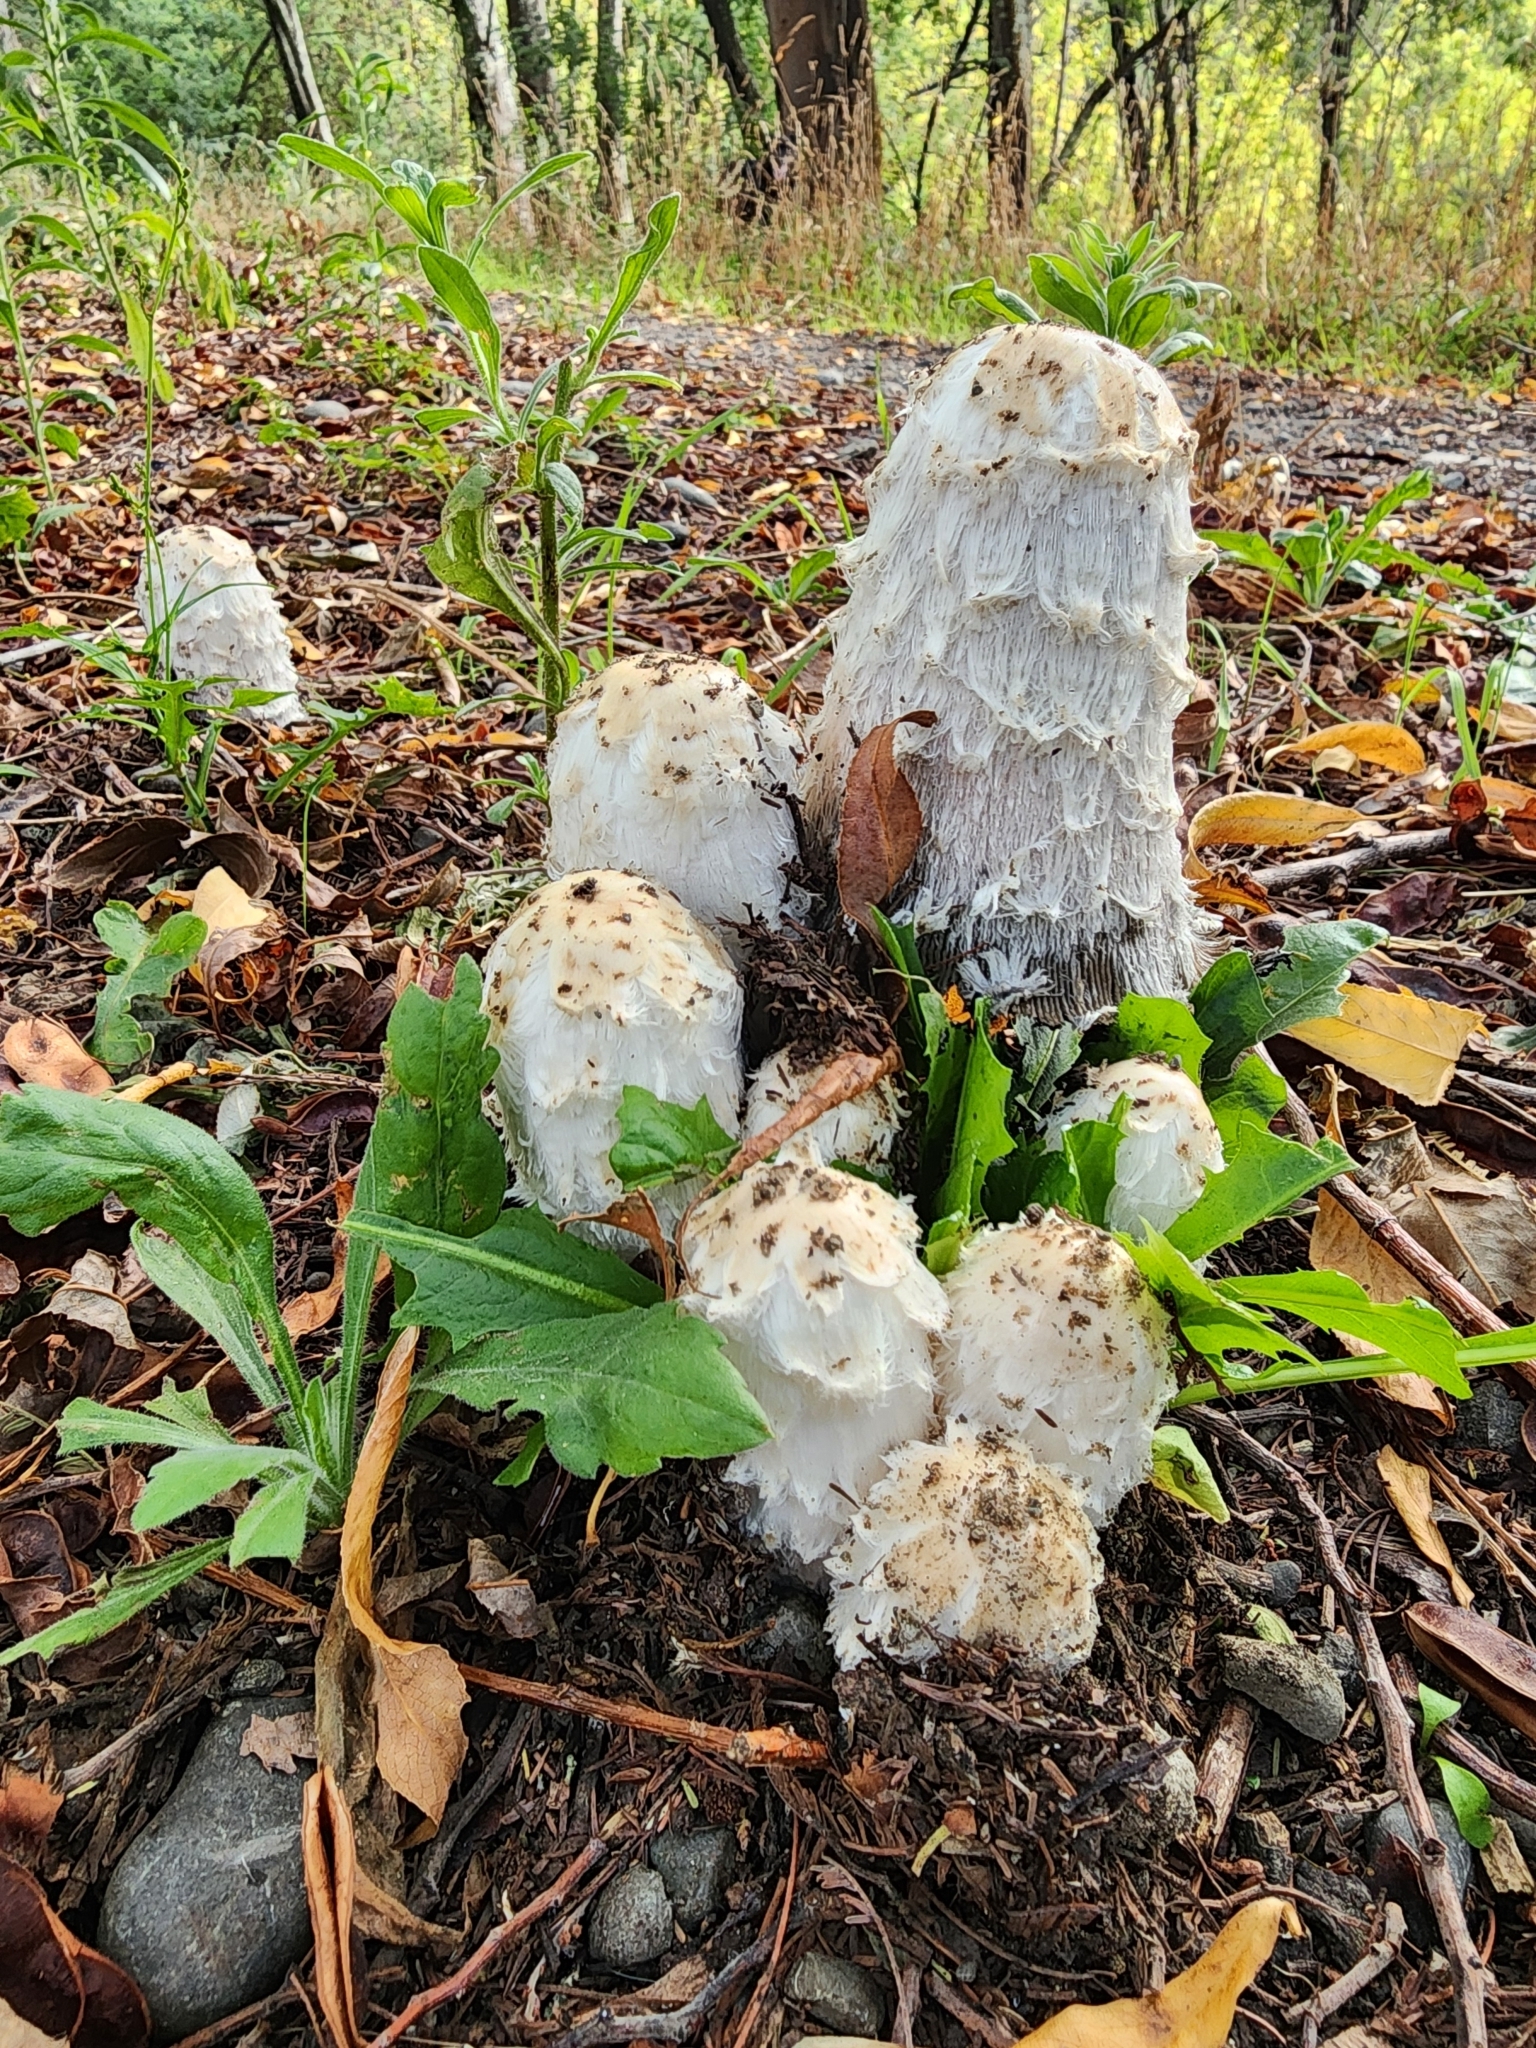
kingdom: Fungi
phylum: Basidiomycota
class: Agaricomycetes
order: Agaricales
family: Agaricaceae
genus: Coprinus
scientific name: Coprinus comatus
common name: Lawyer's wig
